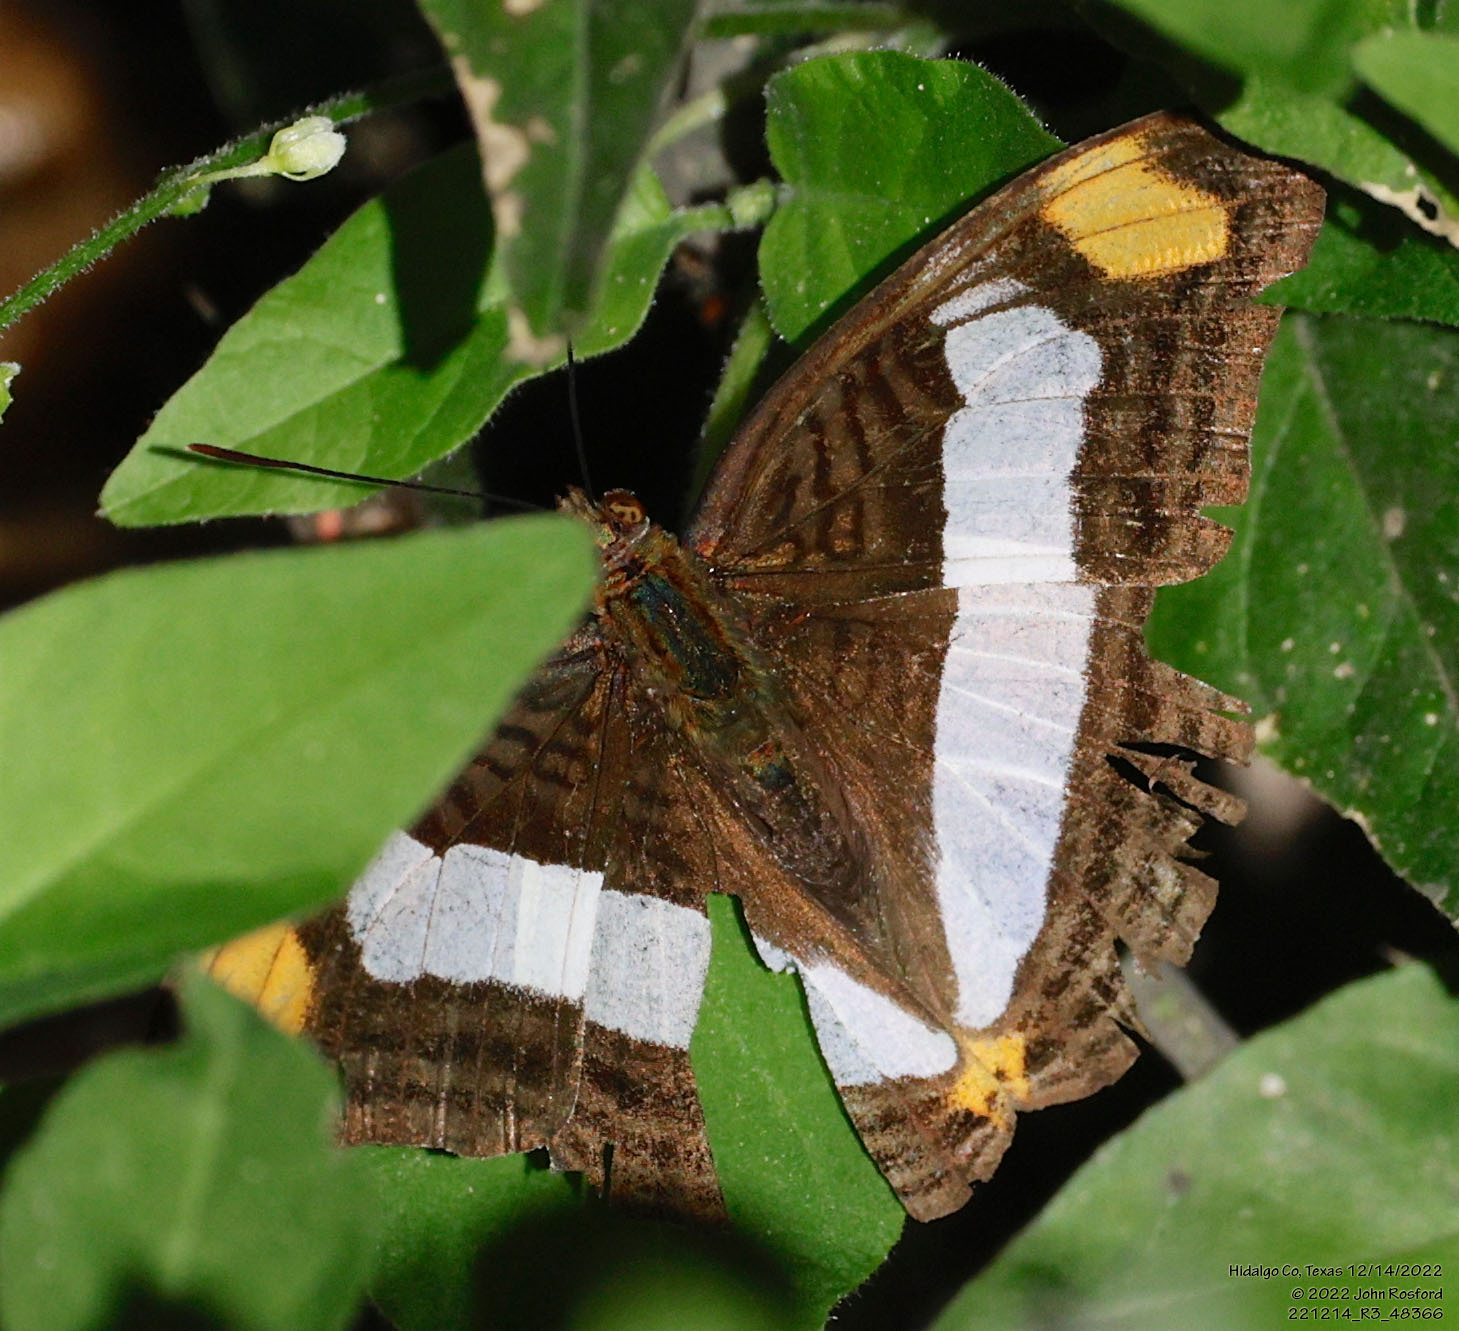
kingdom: Animalia
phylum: Arthropoda
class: Insecta
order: Lepidoptera
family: Nymphalidae
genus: Limenitis
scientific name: Limenitis Adelpha basiloides
